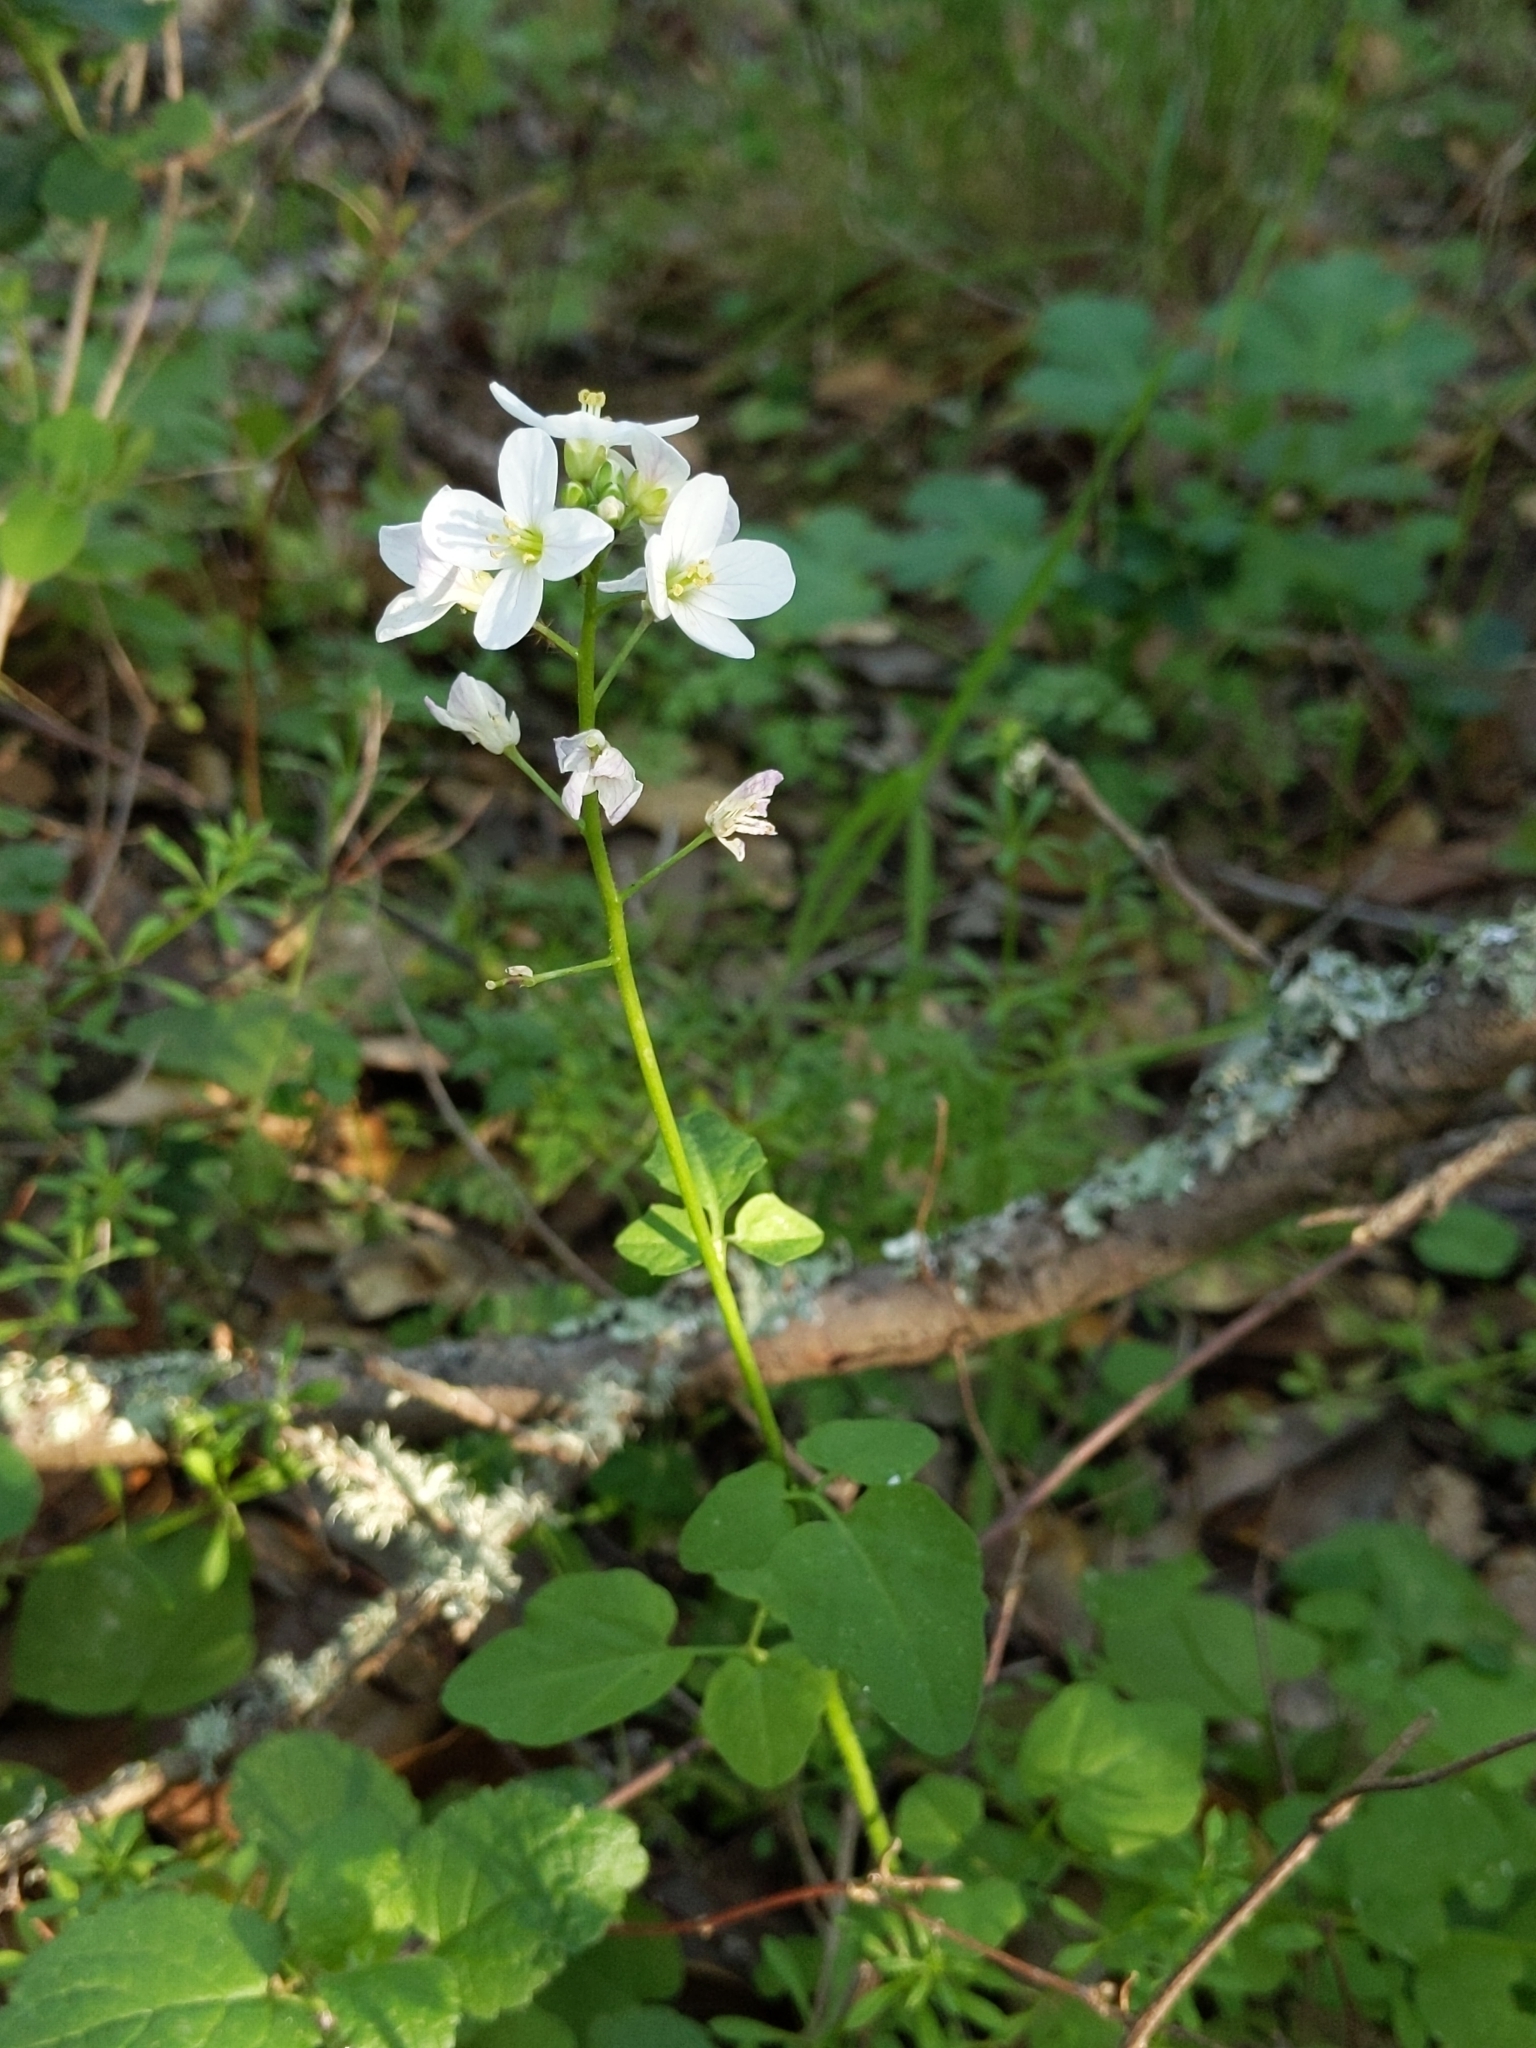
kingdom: Plantae
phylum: Tracheophyta
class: Magnoliopsida
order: Brassicales
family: Brassicaceae
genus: Cardamine
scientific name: Cardamine californica
